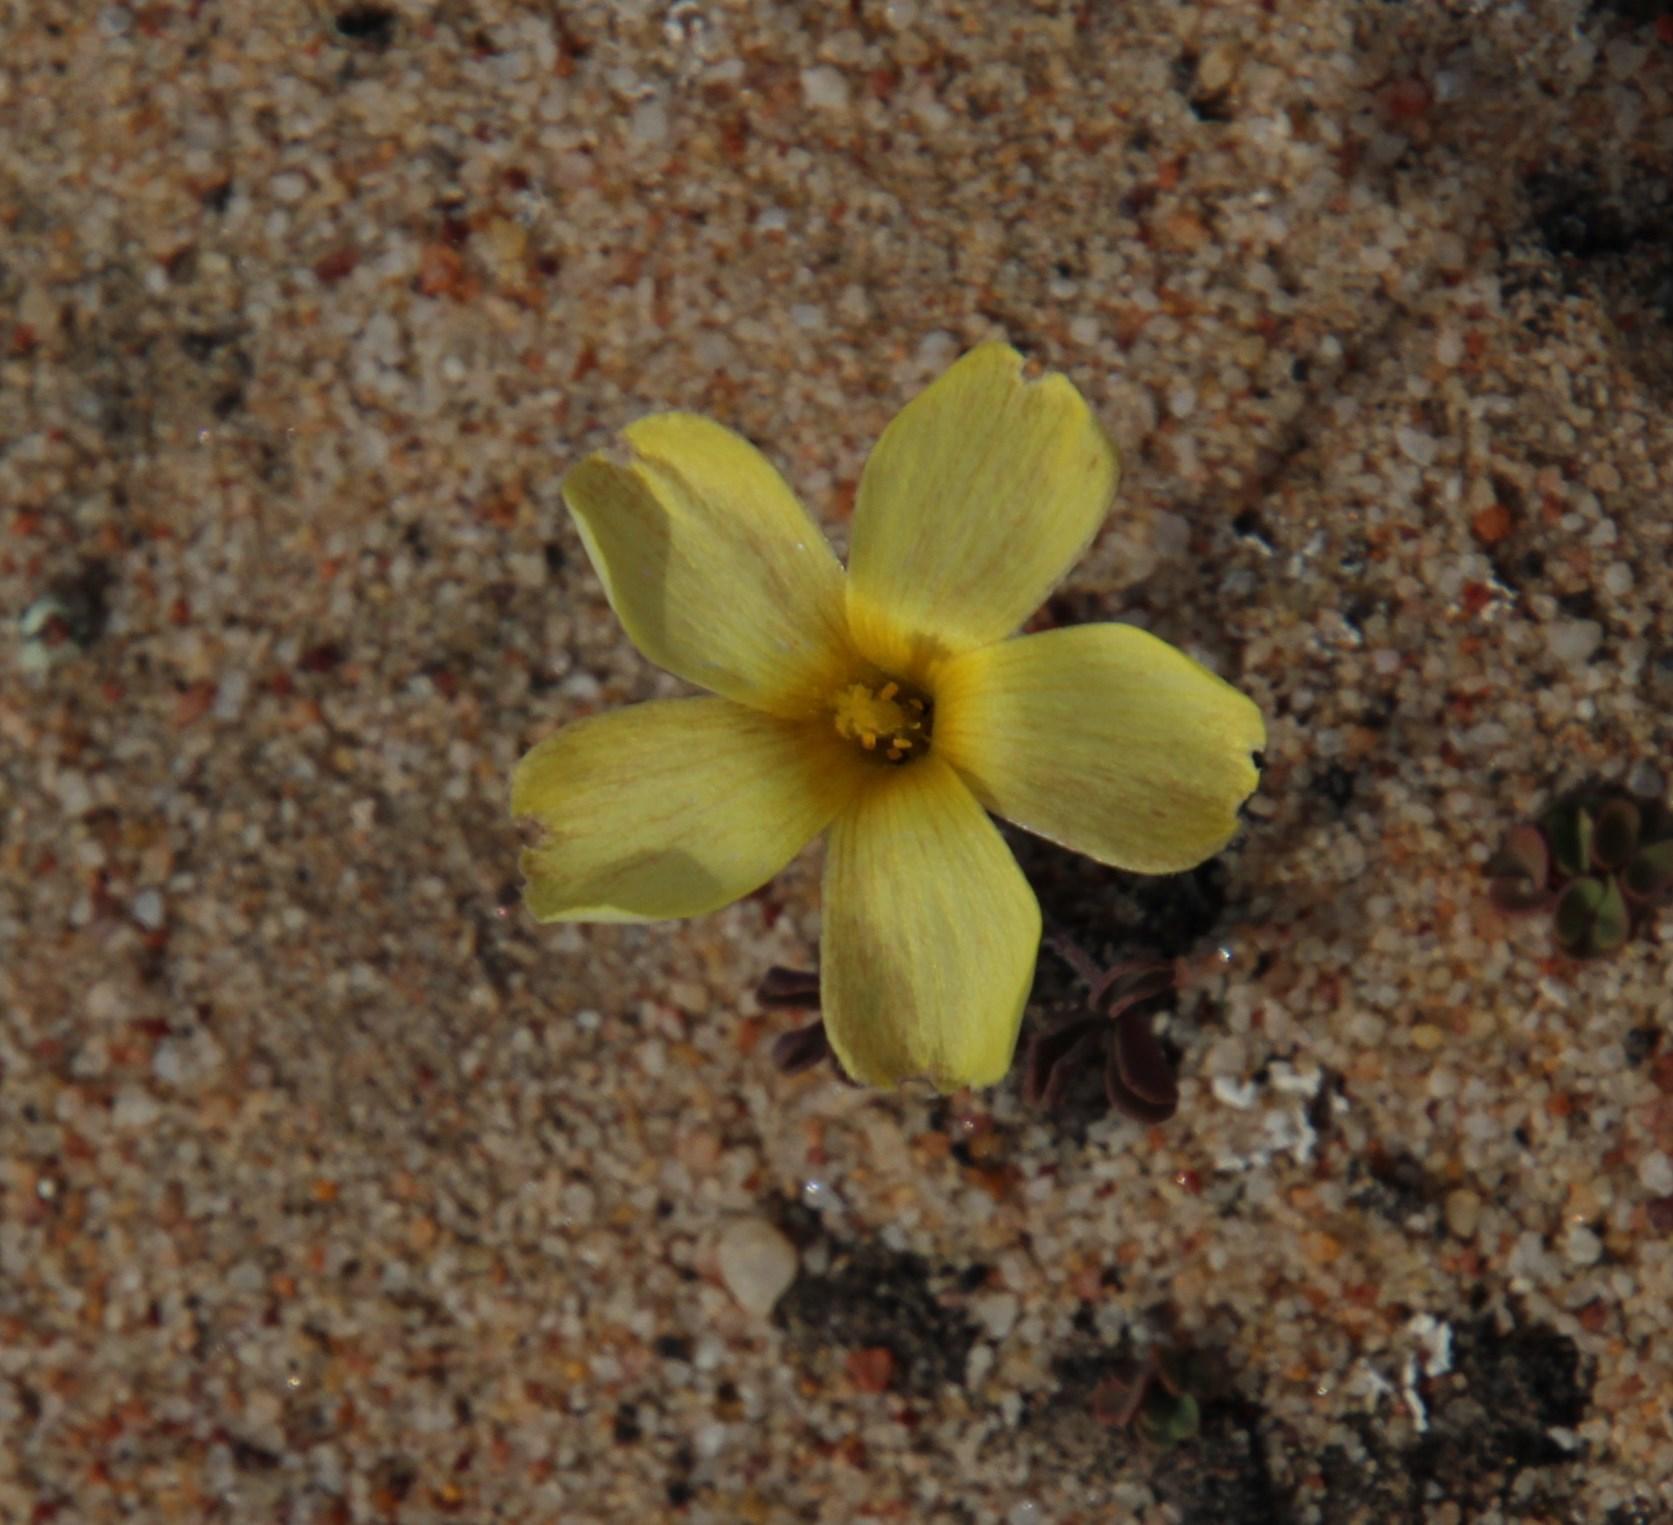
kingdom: Plantae
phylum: Tracheophyta
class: Magnoliopsida
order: Oxalidales
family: Oxalidaceae
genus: Oxalis
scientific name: Oxalis obtusa
